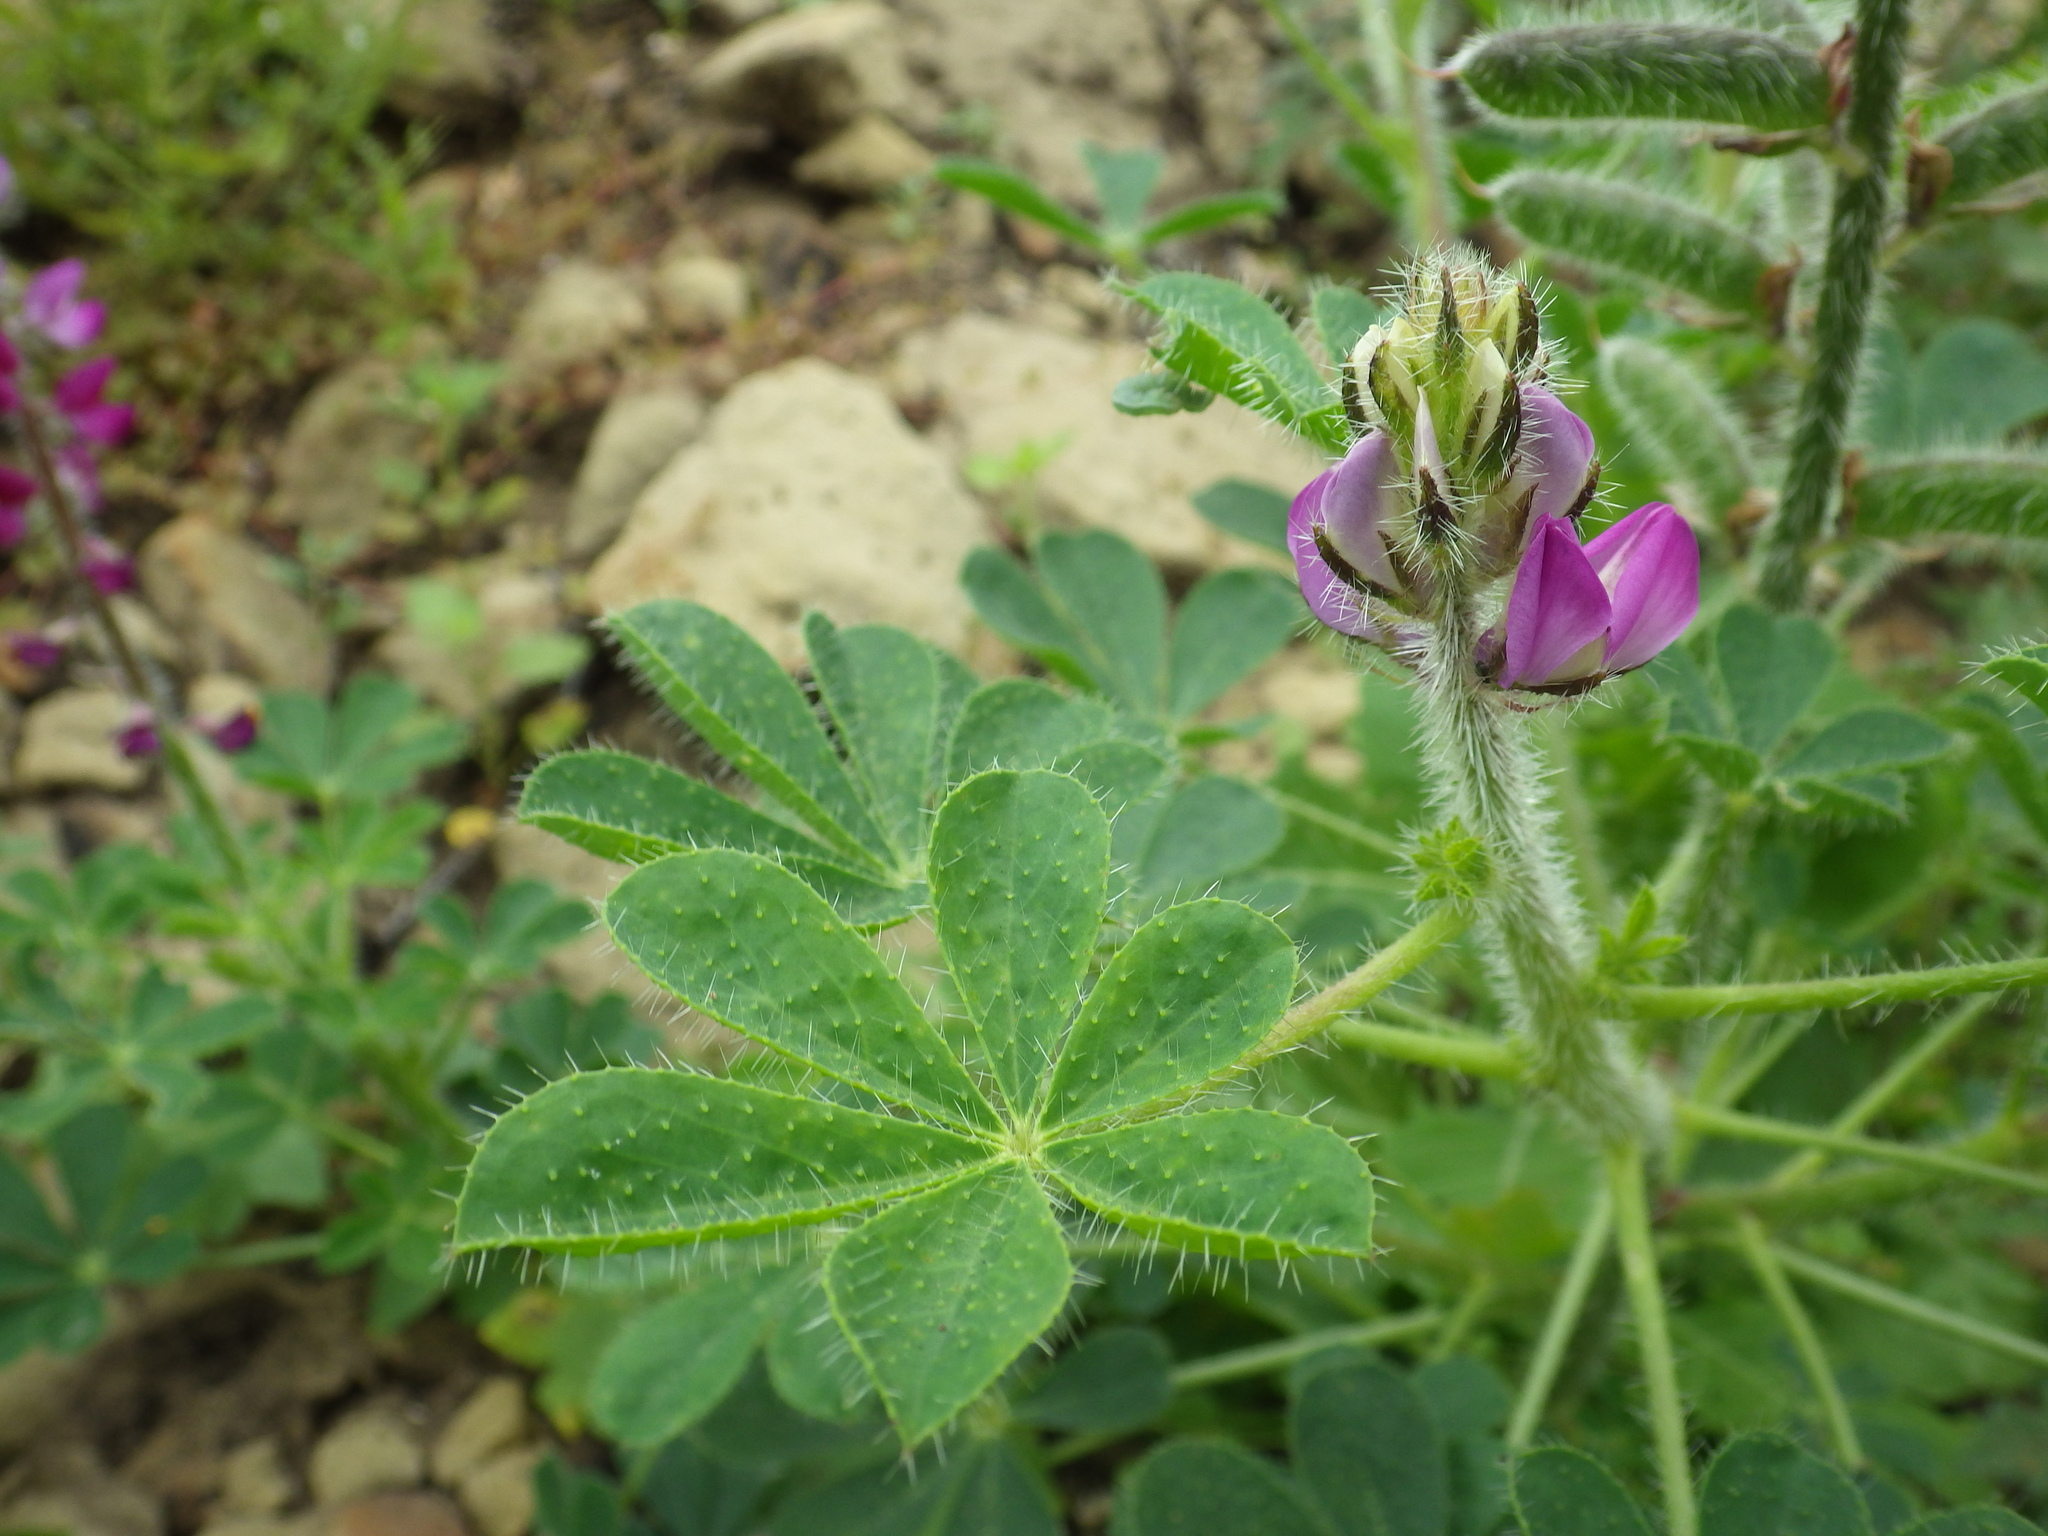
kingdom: Plantae
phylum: Tracheophyta
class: Magnoliopsida
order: Fabales
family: Fabaceae
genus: Lupinus
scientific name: Lupinus hirsutissimus
